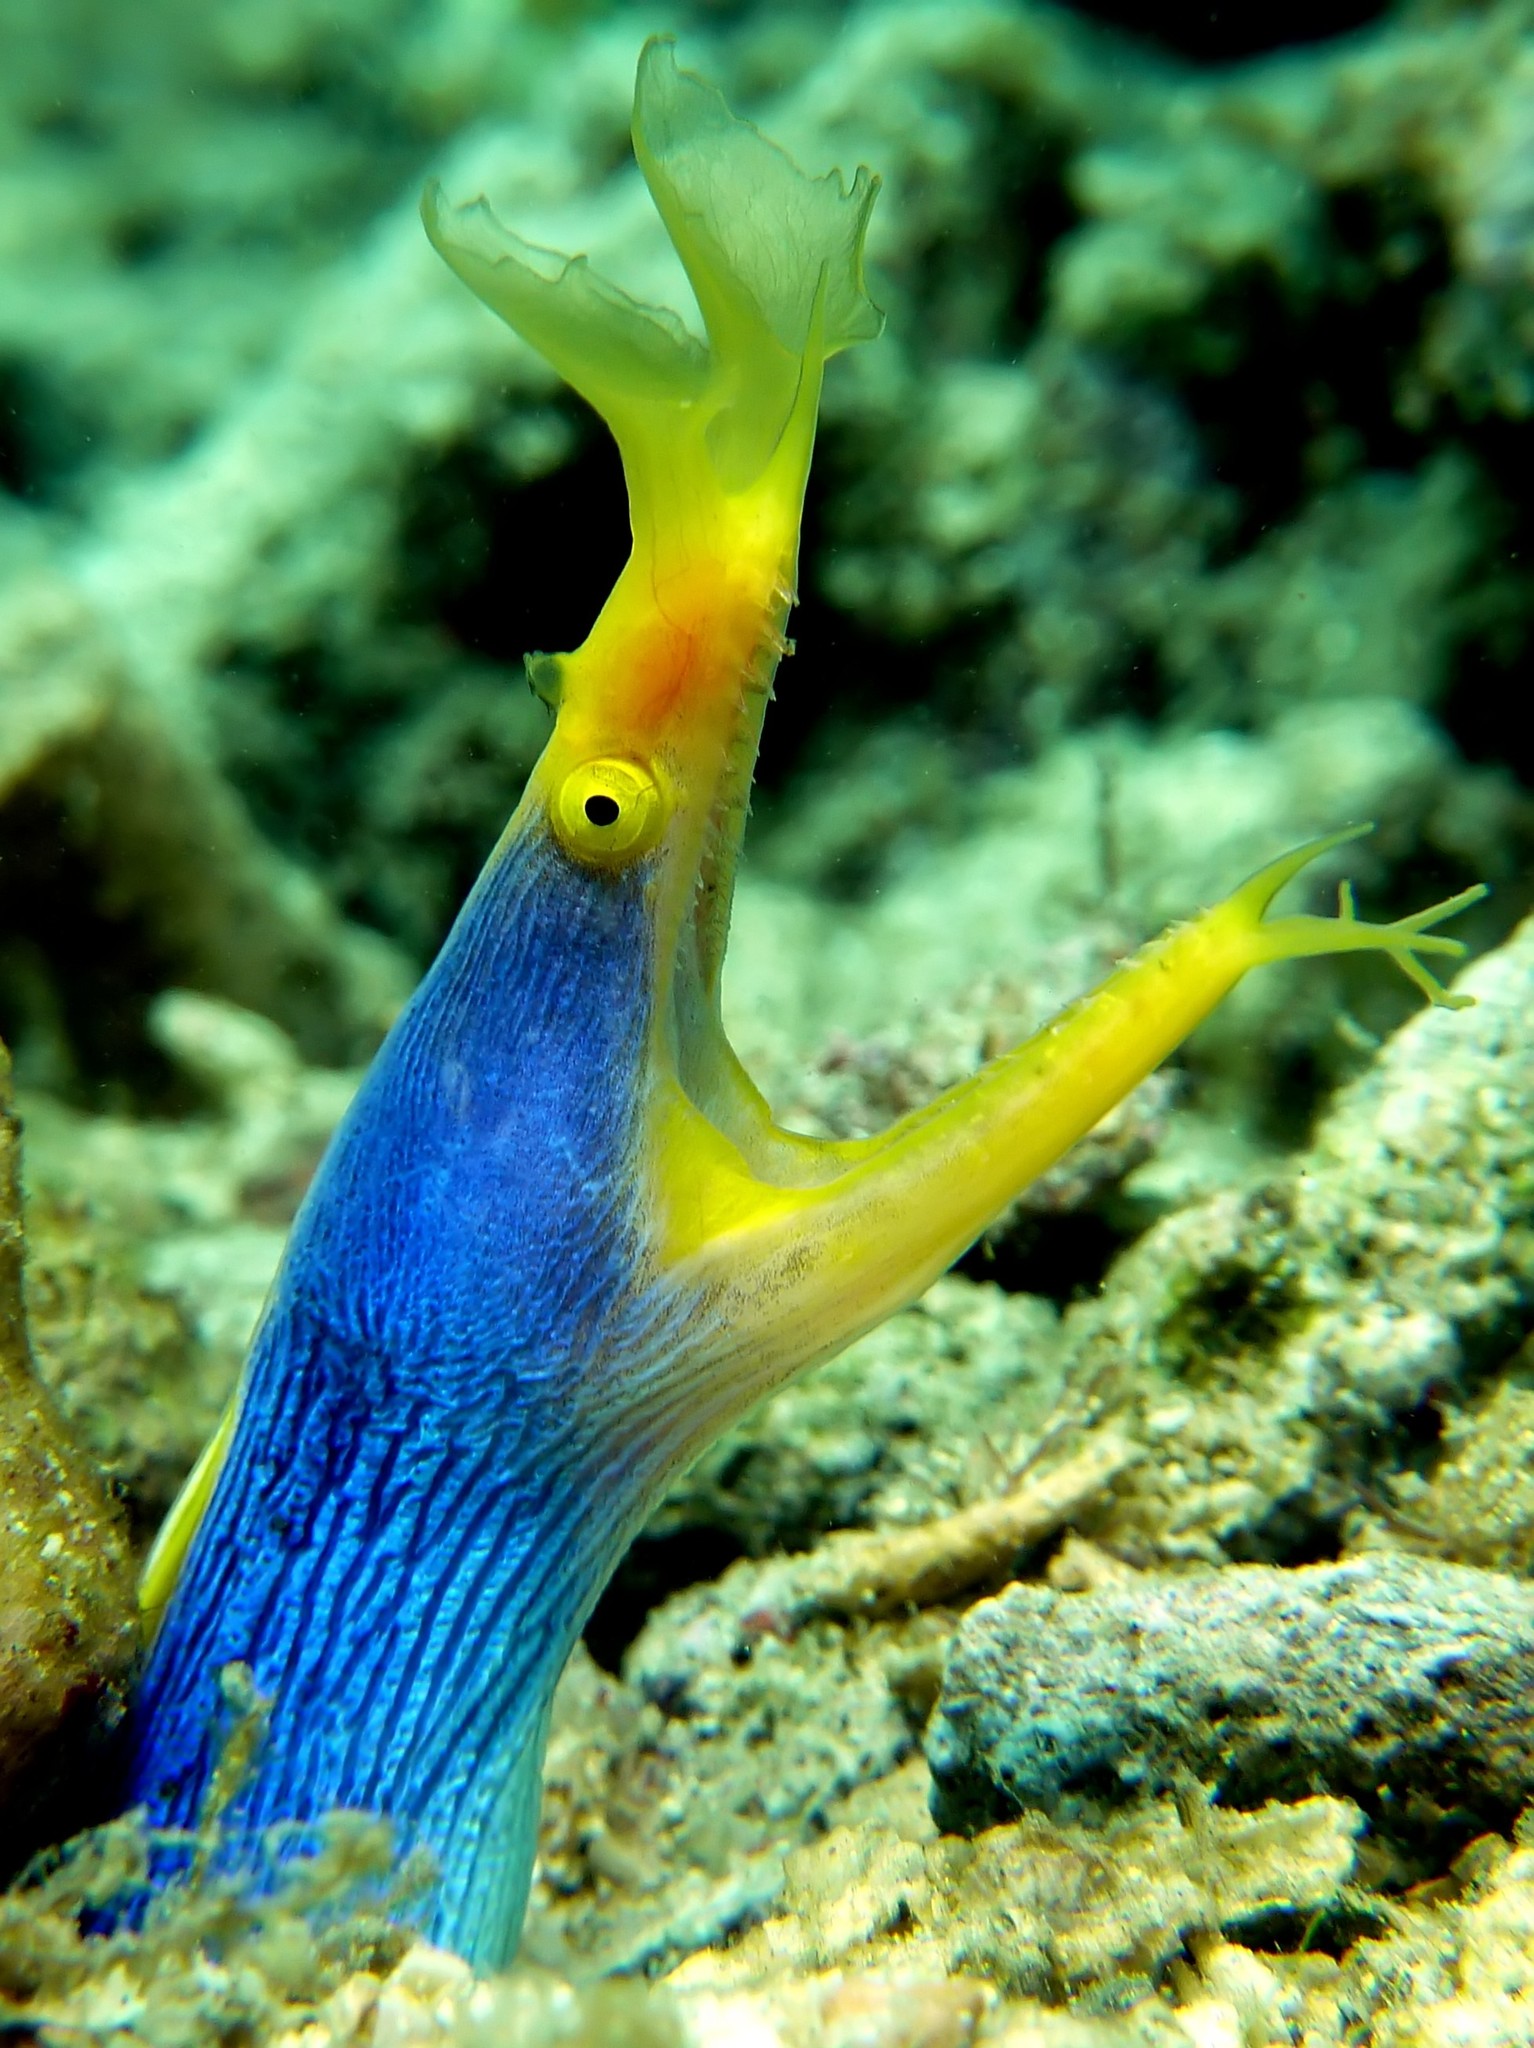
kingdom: Animalia
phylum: Chordata
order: Anguilliformes
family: Muraenidae
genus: Rhinomuraena
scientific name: Rhinomuraena quaesita
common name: Ribbon eel
